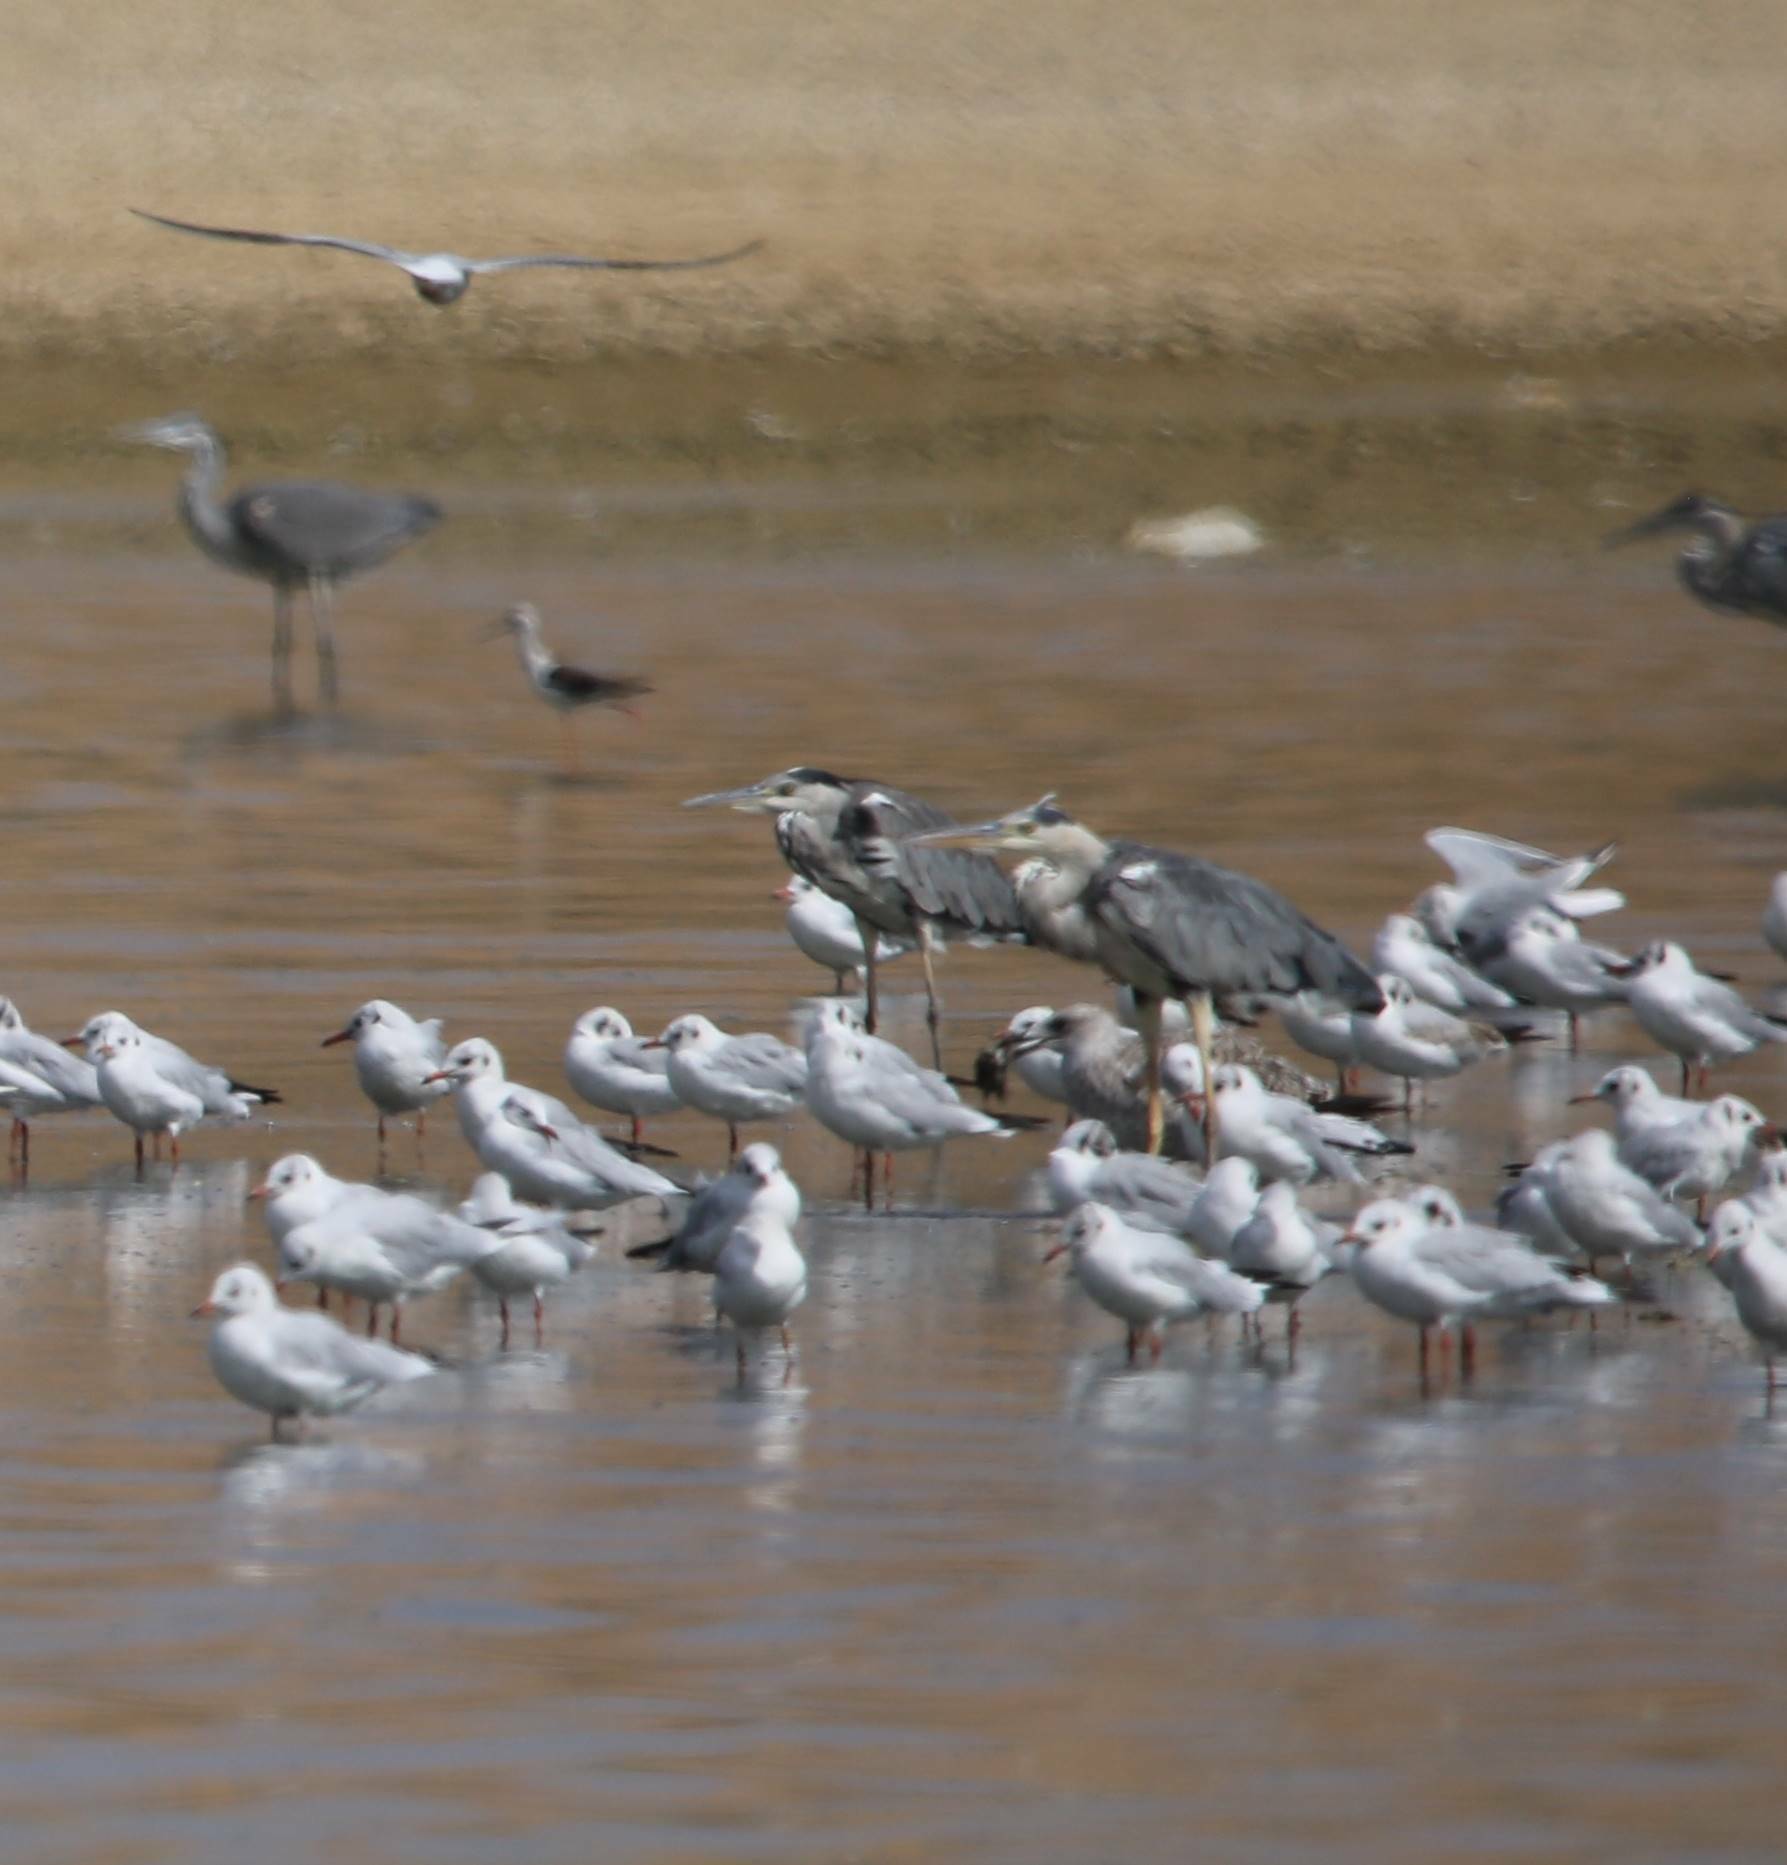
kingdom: Animalia
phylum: Chordata
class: Aves
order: Charadriiformes
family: Laridae
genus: Chroicocephalus
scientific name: Chroicocephalus ridibundus
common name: Black-headed gull
